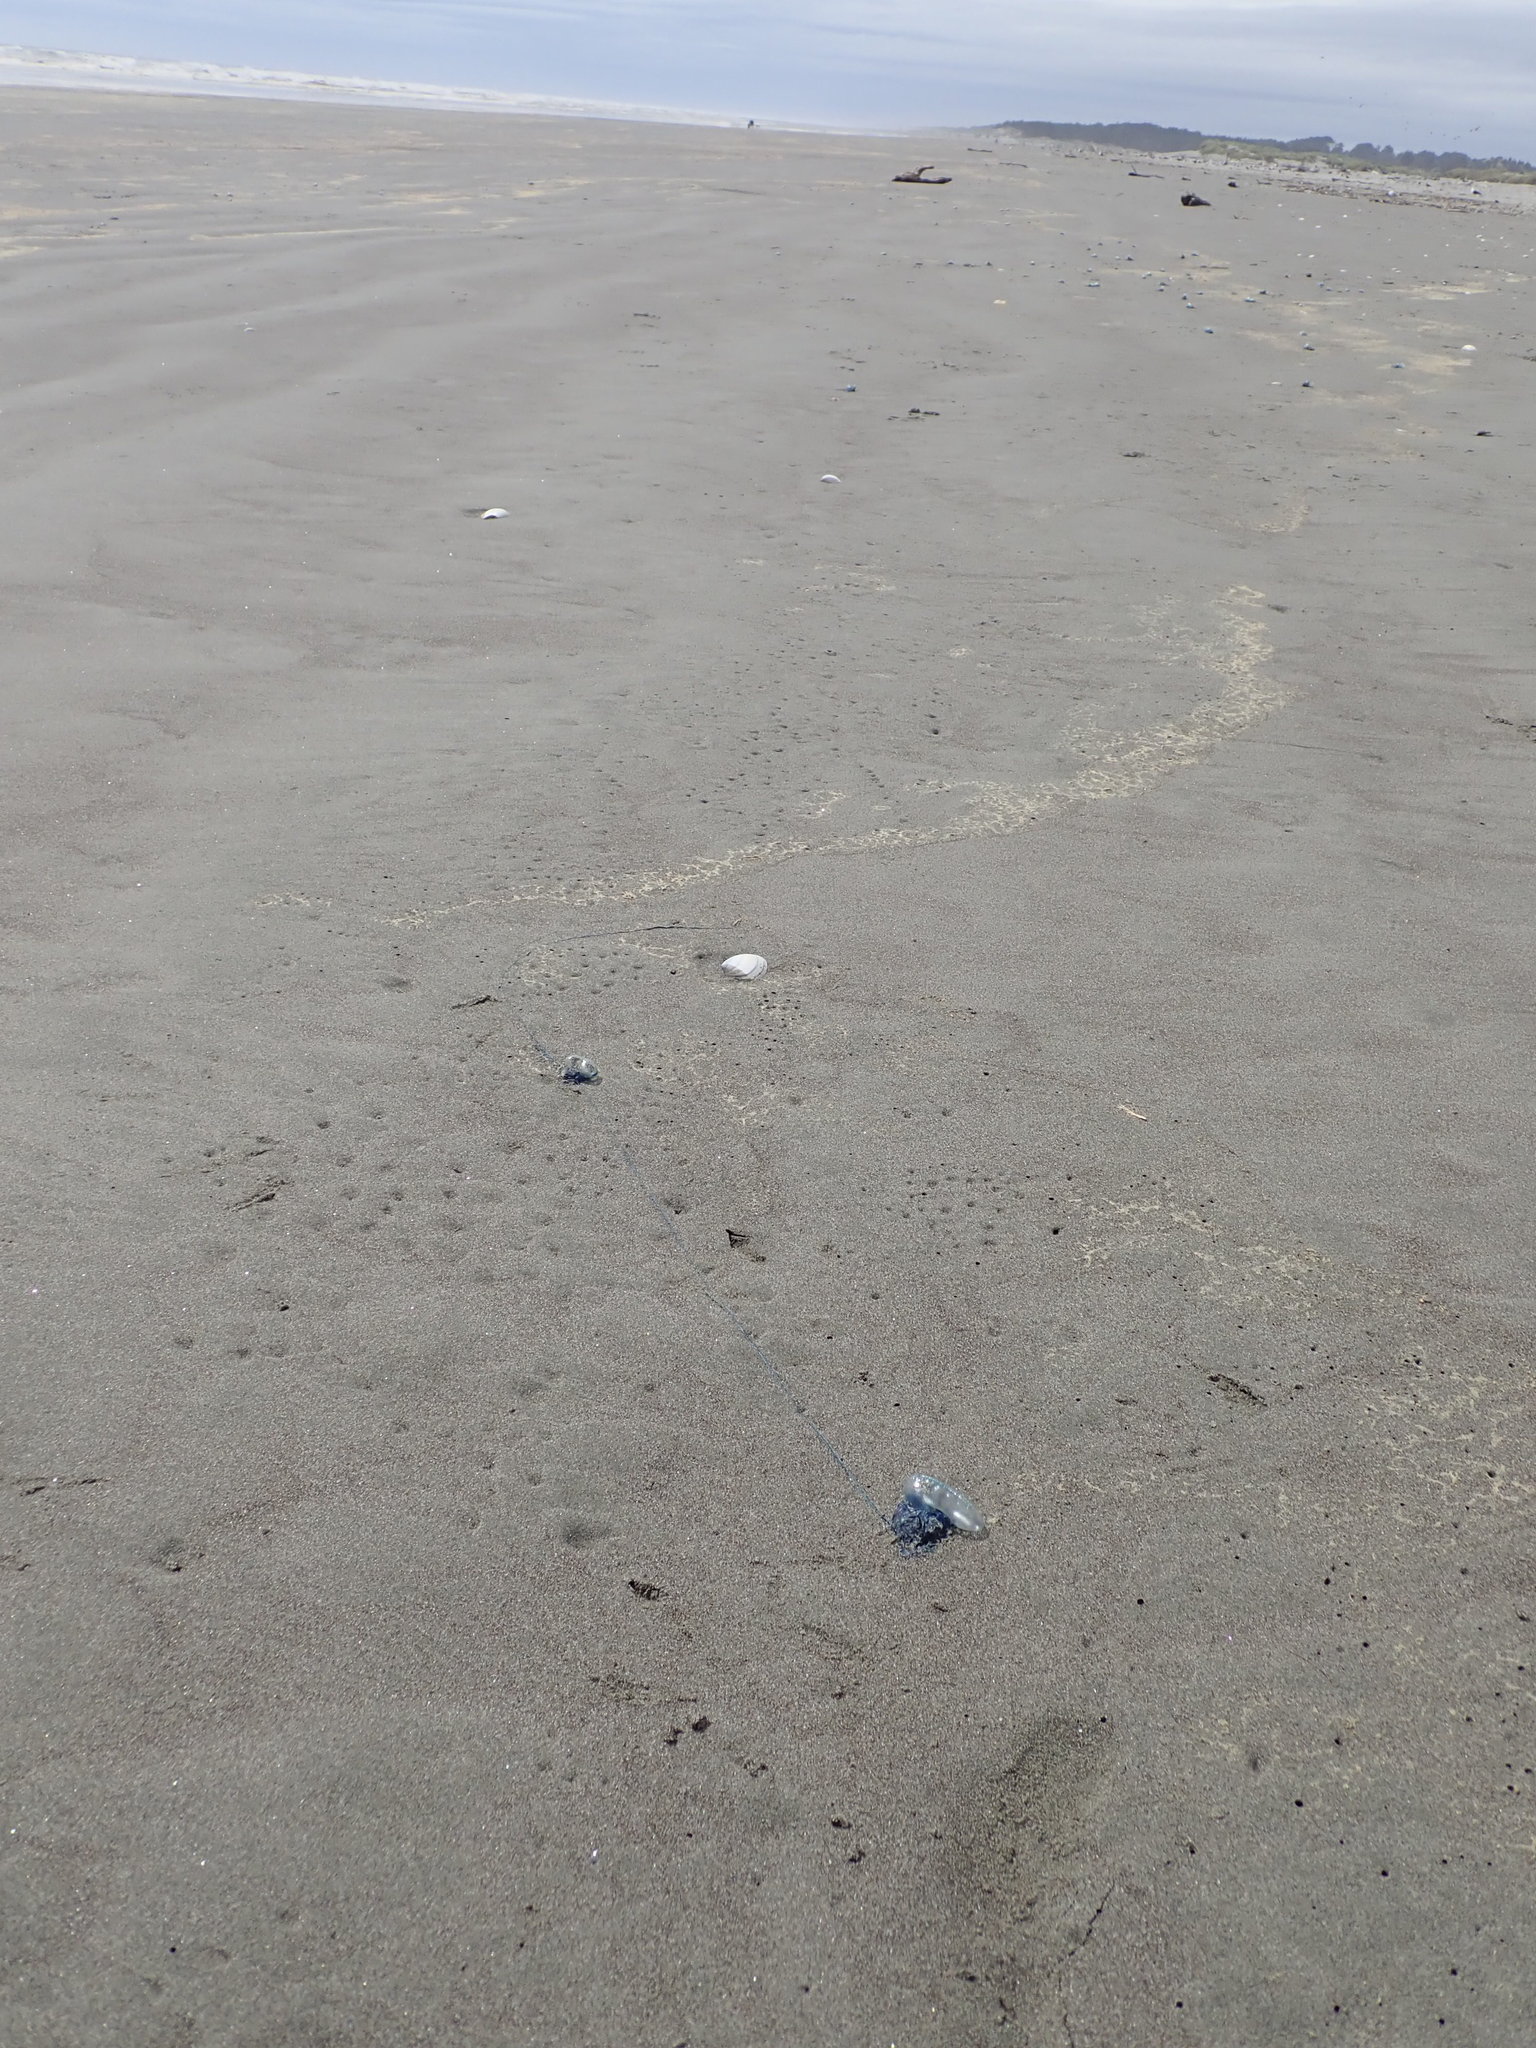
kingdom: Animalia
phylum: Cnidaria
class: Hydrozoa
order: Siphonophorae
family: Physaliidae
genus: Physalia
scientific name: Physalia physalis
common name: Portuguese man-of-war
